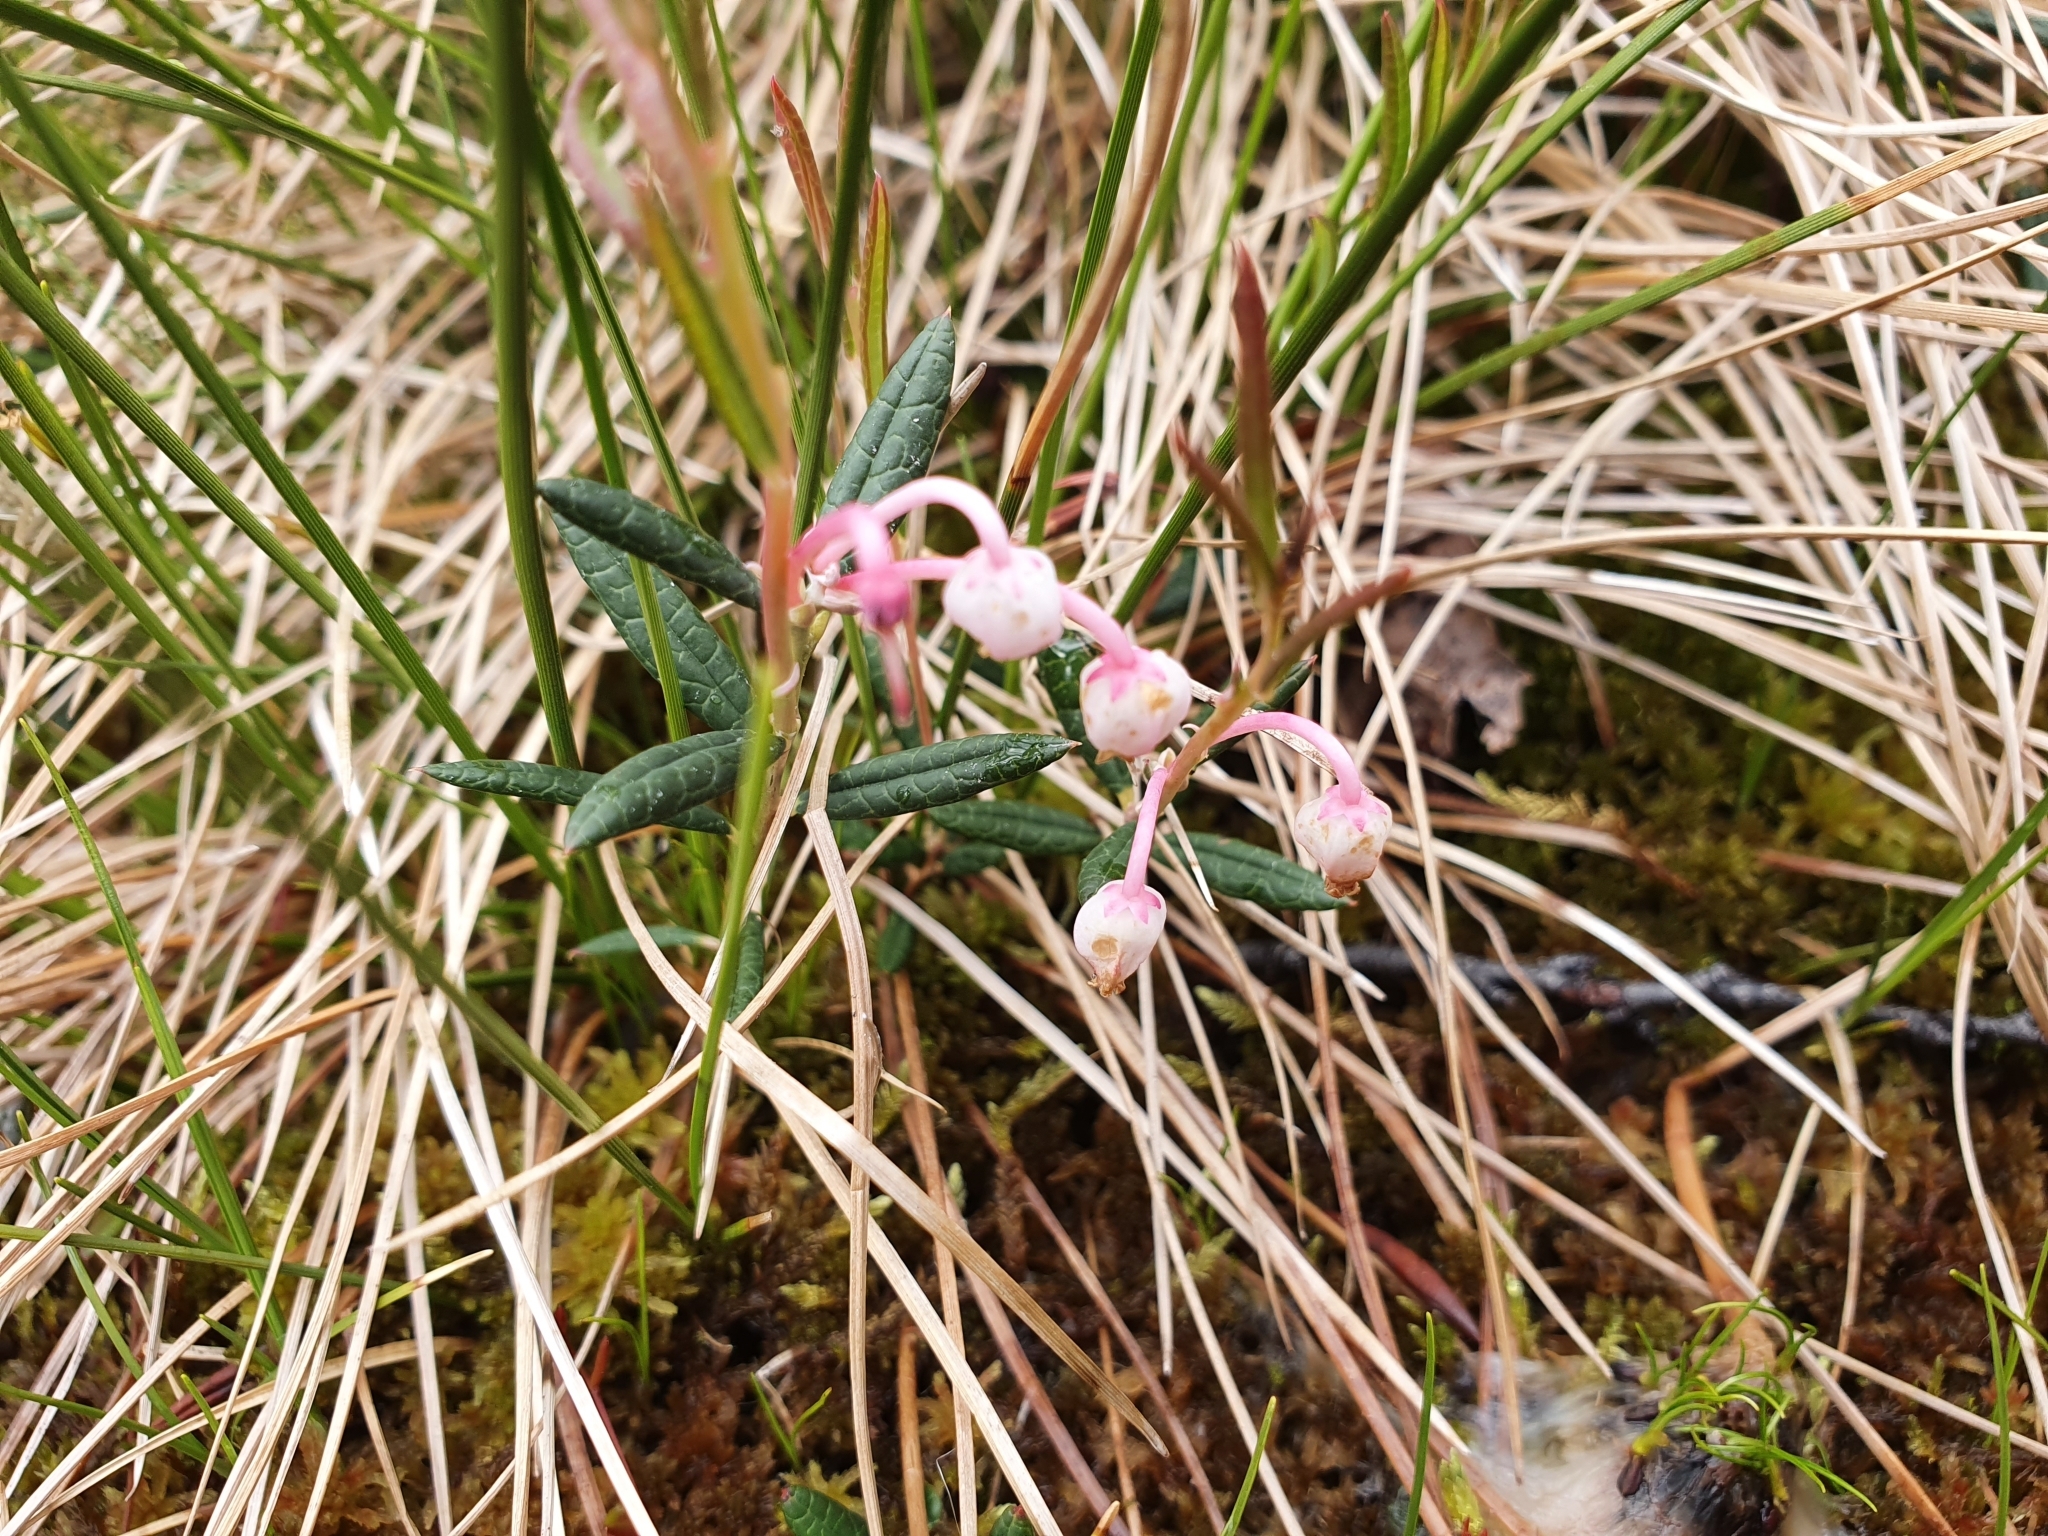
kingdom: Plantae
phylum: Tracheophyta
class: Magnoliopsida
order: Ericales
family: Ericaceae
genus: Andromeda
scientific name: Andromeda polifolia
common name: Bog-rosemary
